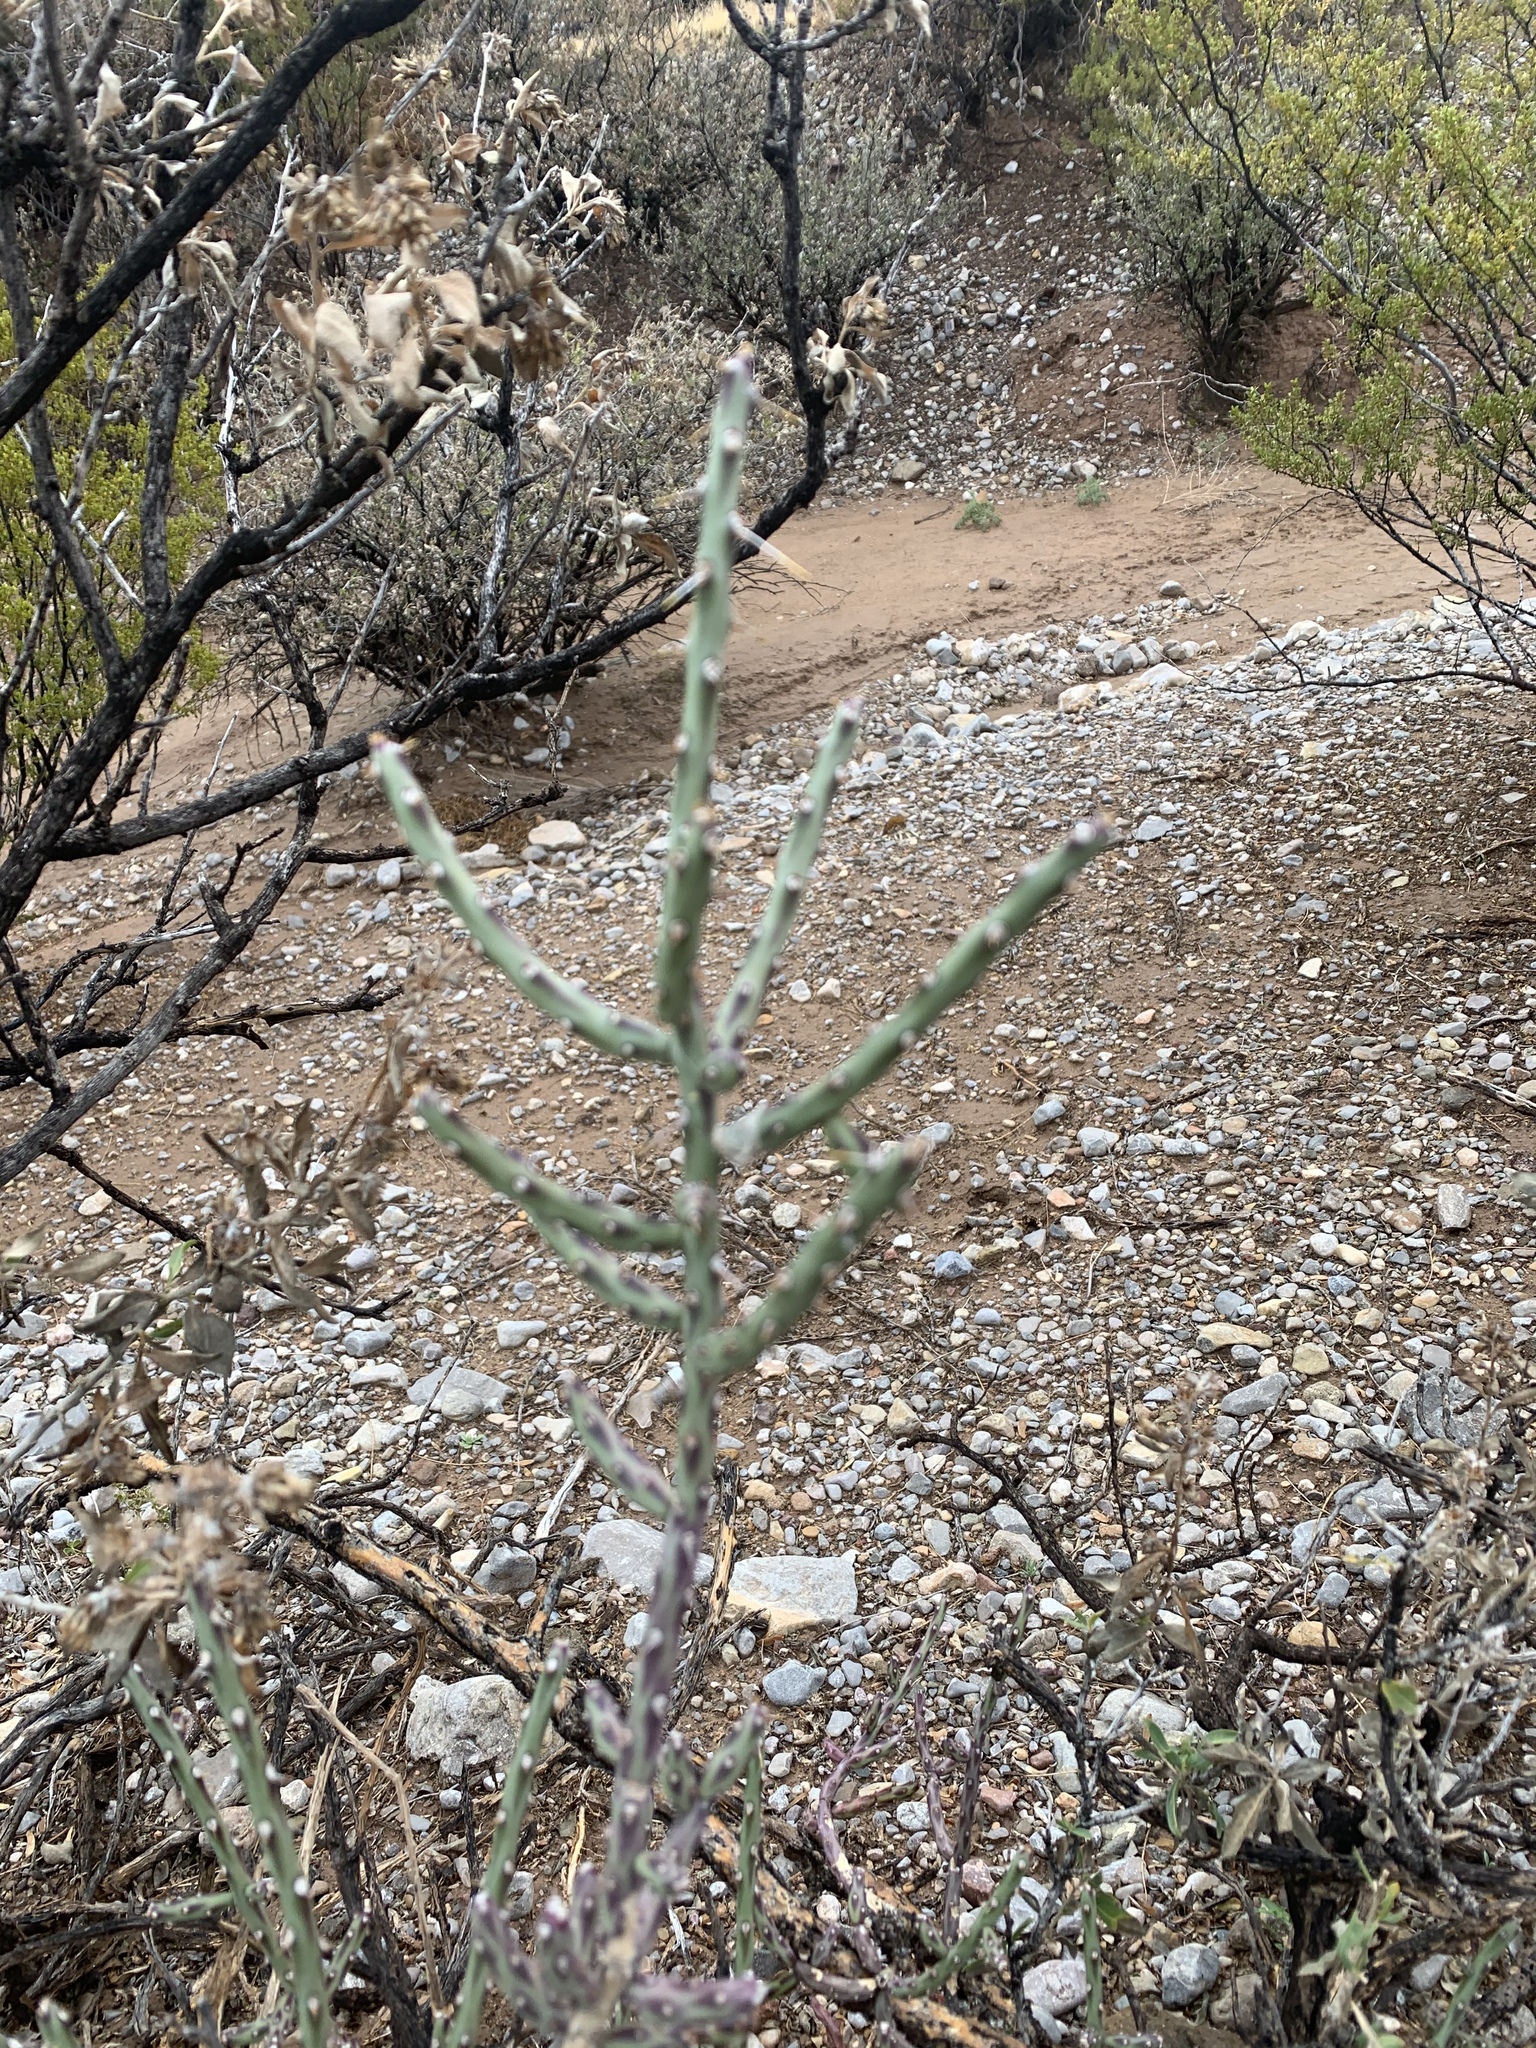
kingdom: Plantae
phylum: Tracheophyta
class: Magnoliopsida
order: Caryophyllales
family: Cactaceae
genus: Cylindropuntia
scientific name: Cylindropuntia leptocaulis
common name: Christmas cactus
